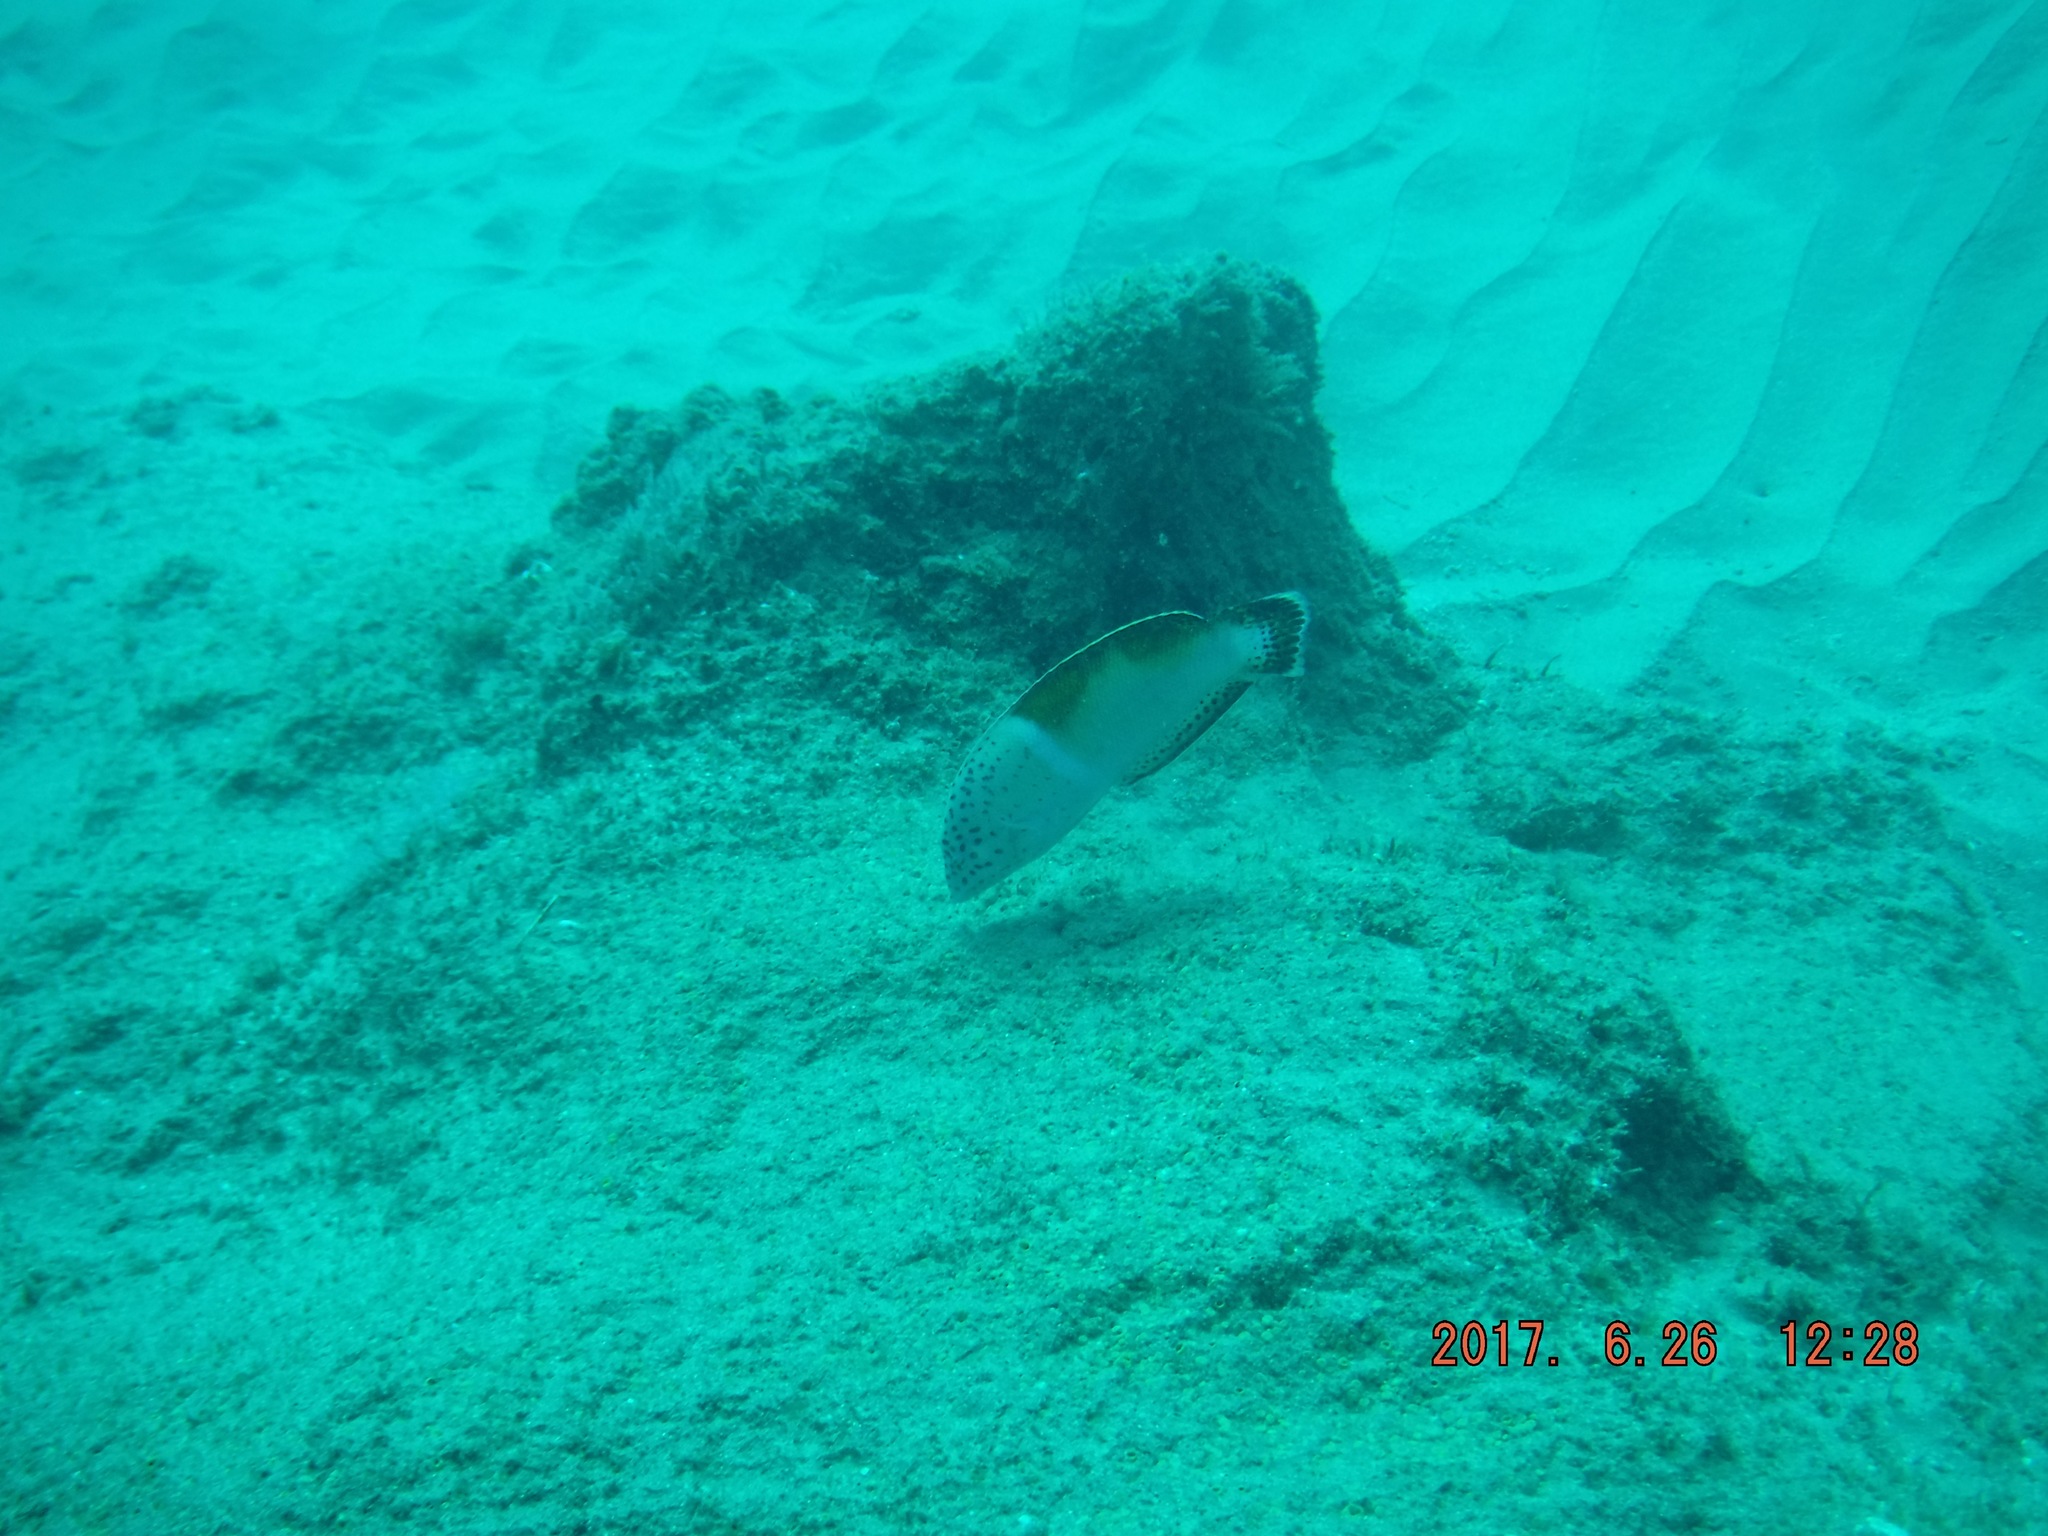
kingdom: Animalia
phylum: Chordata
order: Perciformes
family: Labridae
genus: Coris
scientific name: Coris aygula
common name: Clown coris
